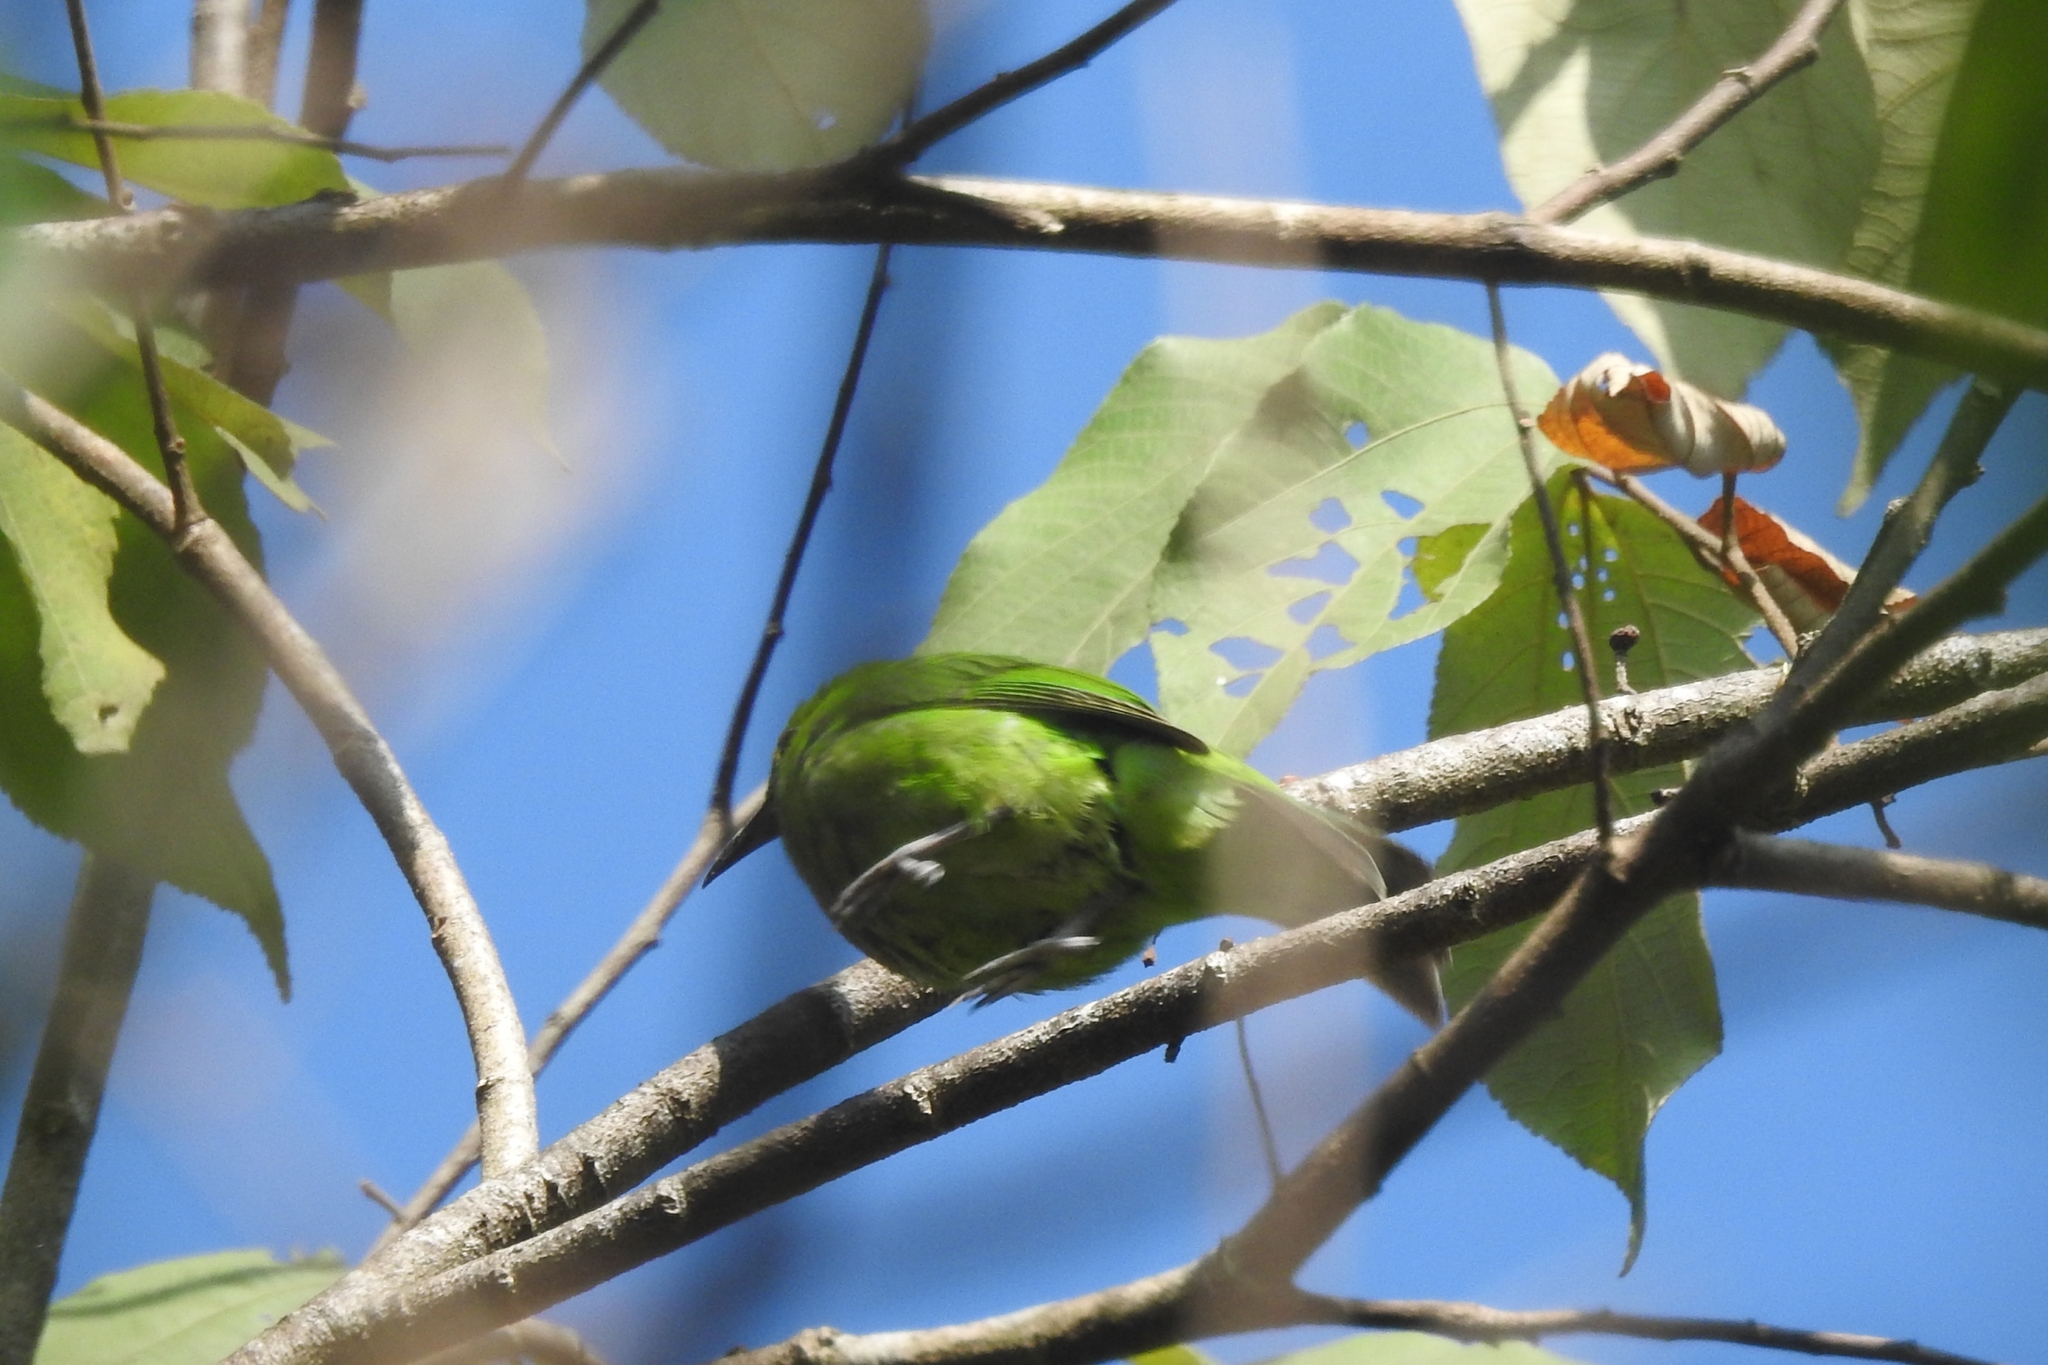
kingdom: Animalia
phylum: Chordata
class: Aves
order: Passeriformes
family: Chloropseidae
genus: Chloropsis
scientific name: Chloropsis aurifrons
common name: Golden-fronted leafbird
